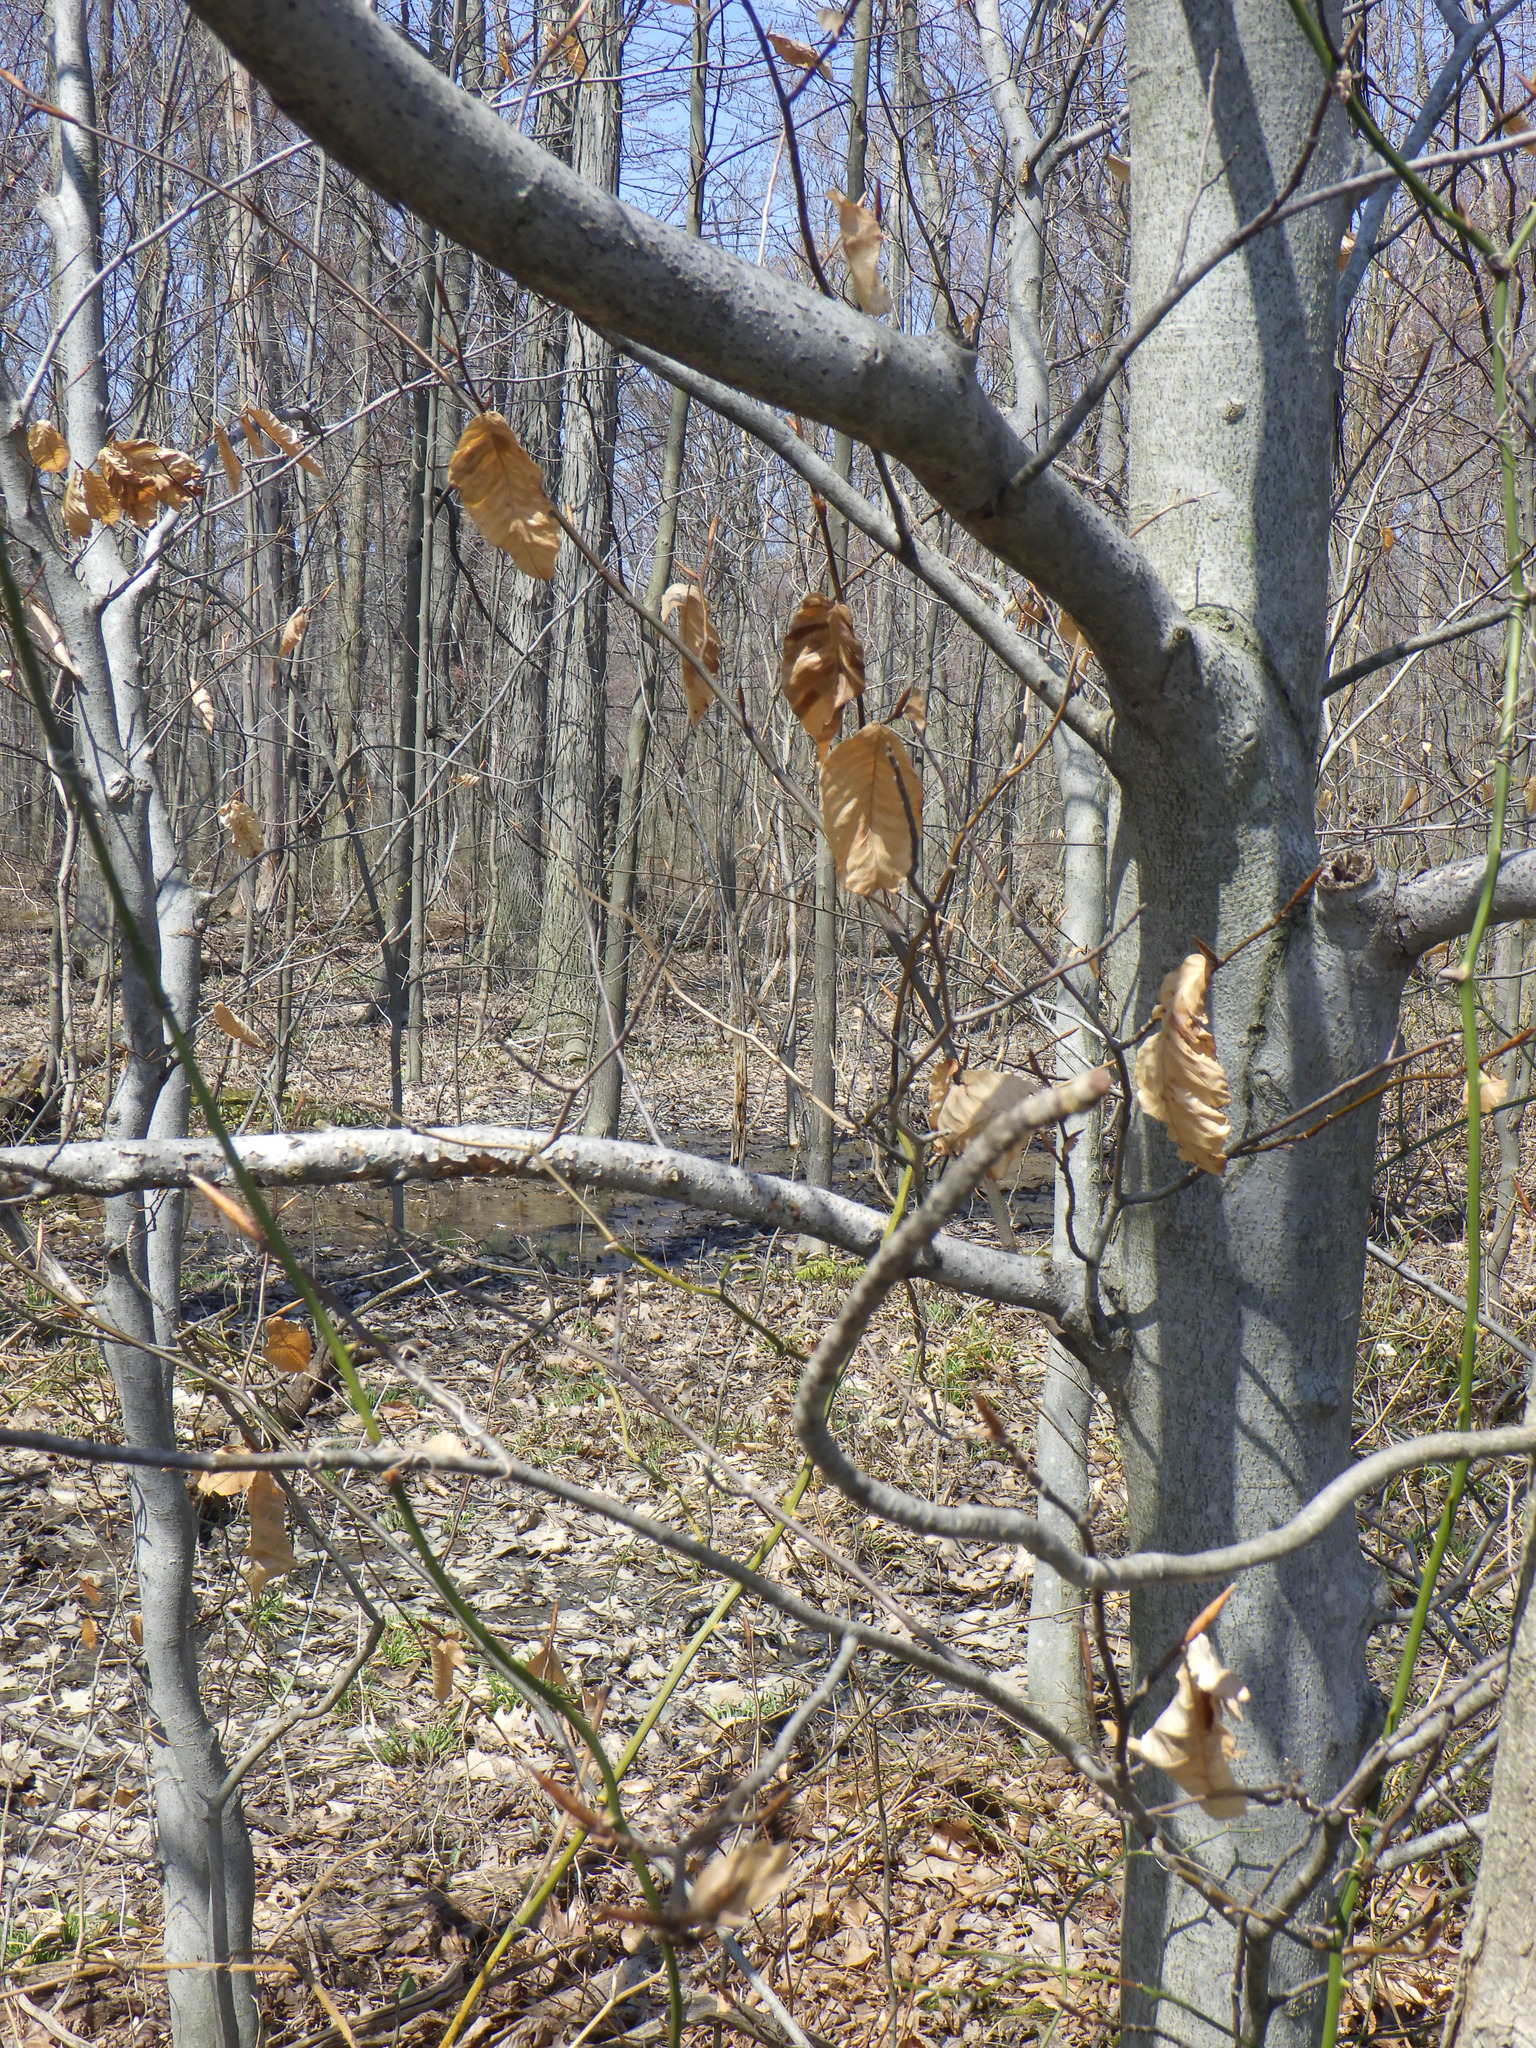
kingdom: Plantae
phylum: Tracheophyta
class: Magnoliopsida
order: Fagales
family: Fagaceae
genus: Fagus
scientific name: Fagus grandifolia
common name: American beech
